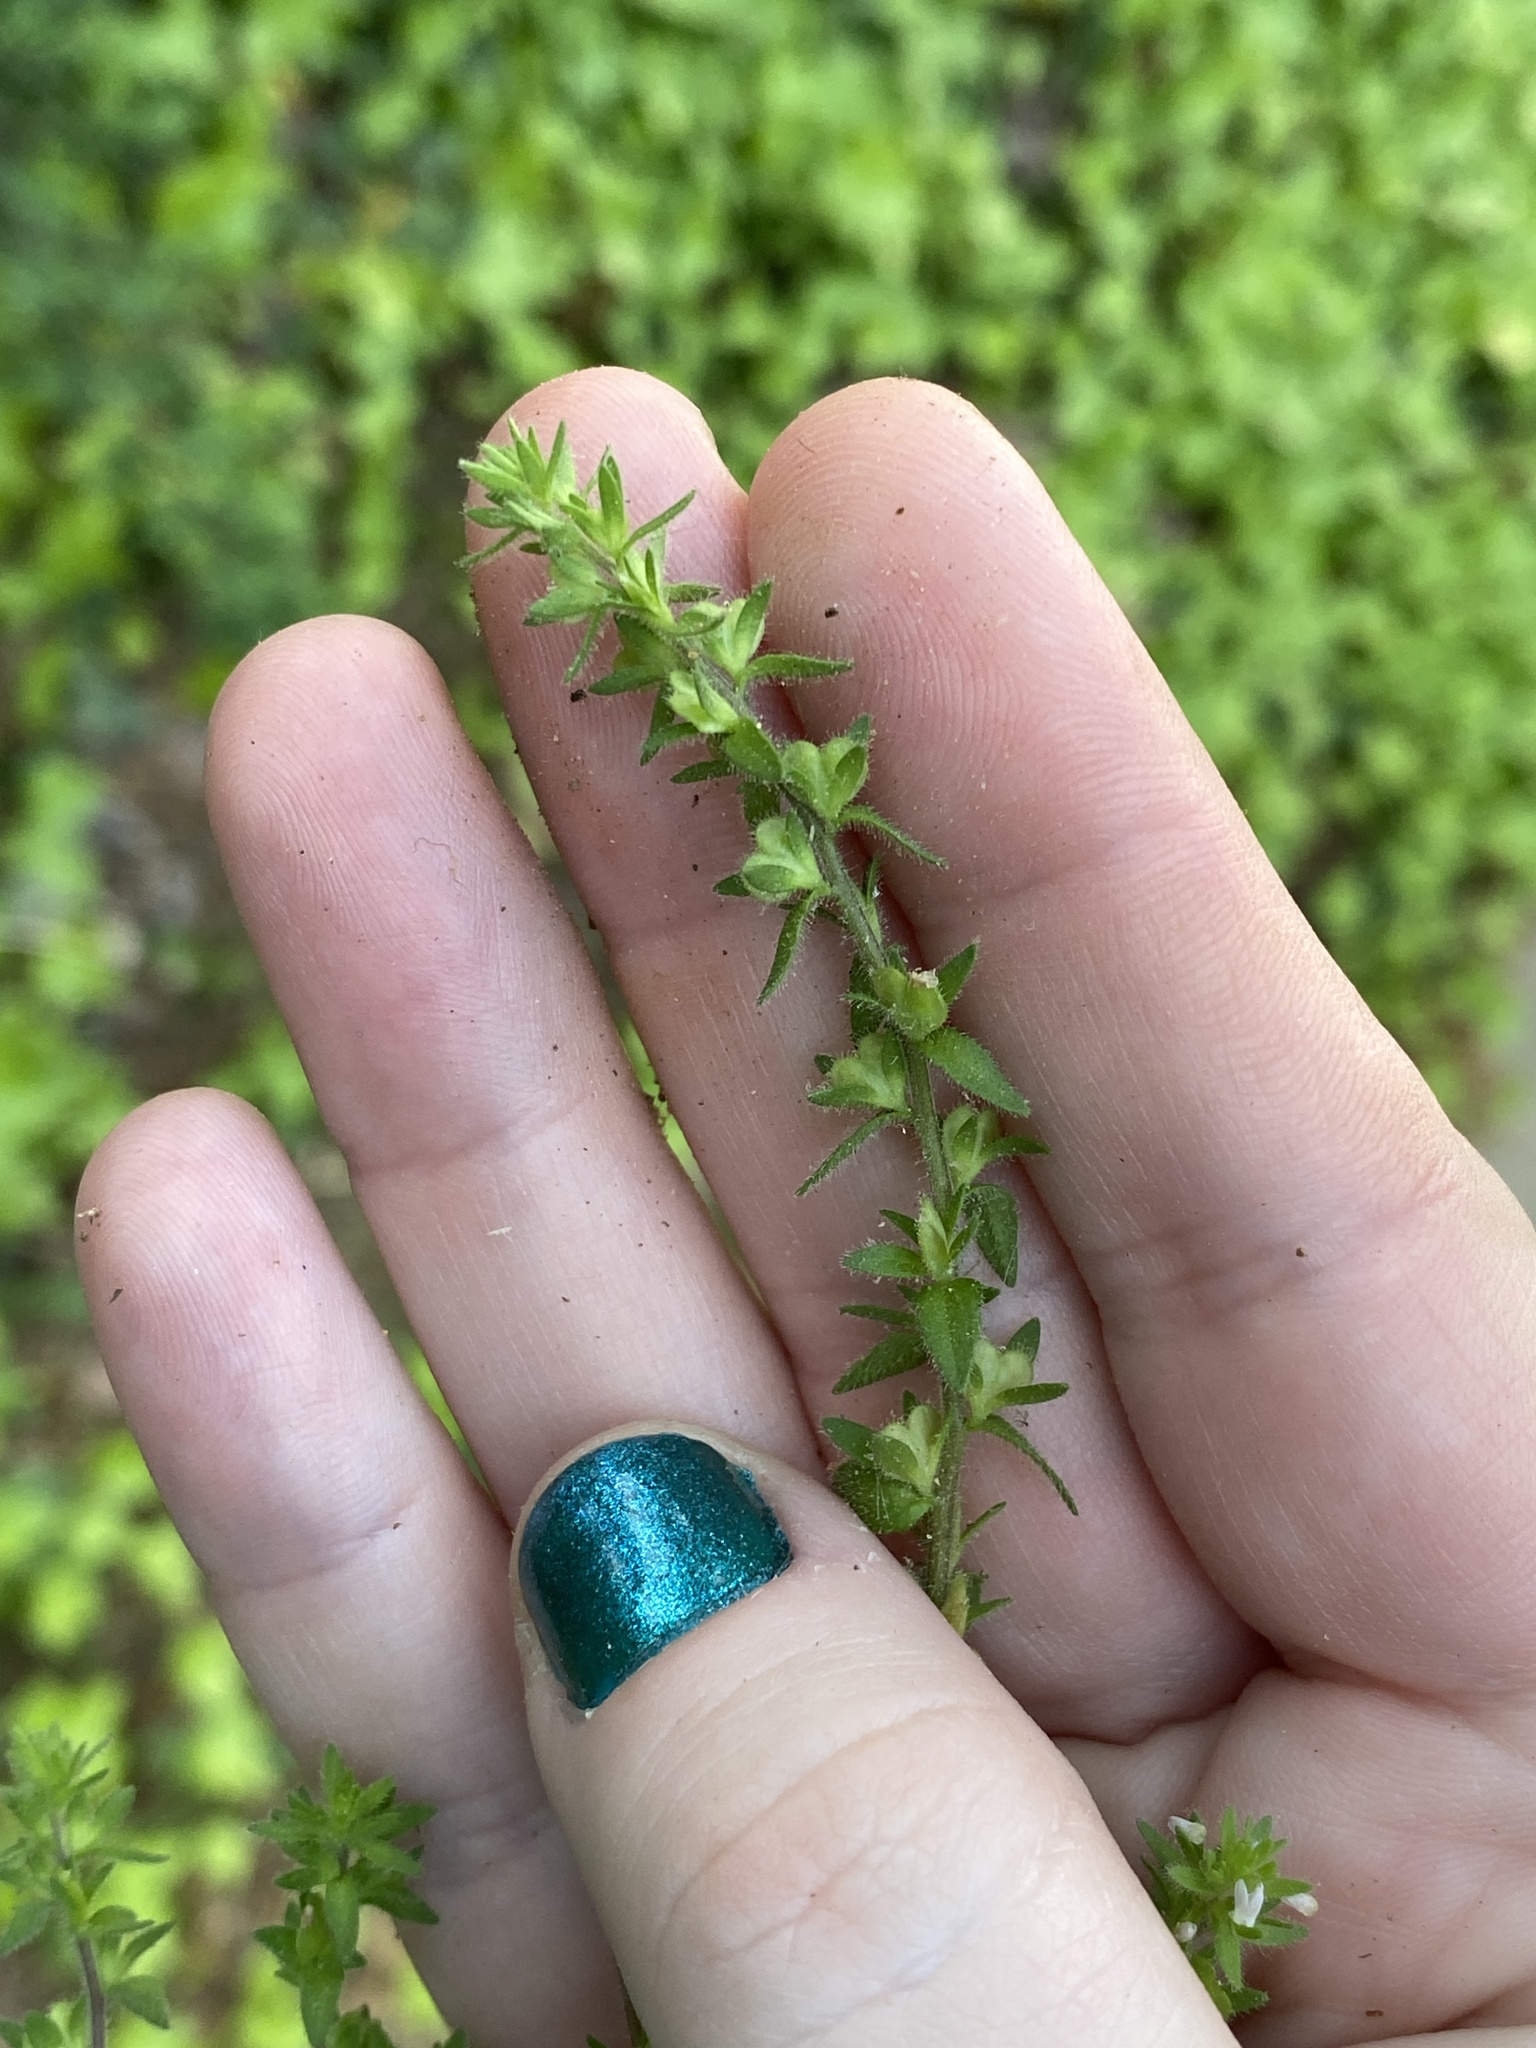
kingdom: Plantae
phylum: Tracheophyta
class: Magnoliopsida
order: Lamiales
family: Plantaginaceae
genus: Veronica
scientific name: Veronica arvensis
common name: Corn speedwell
